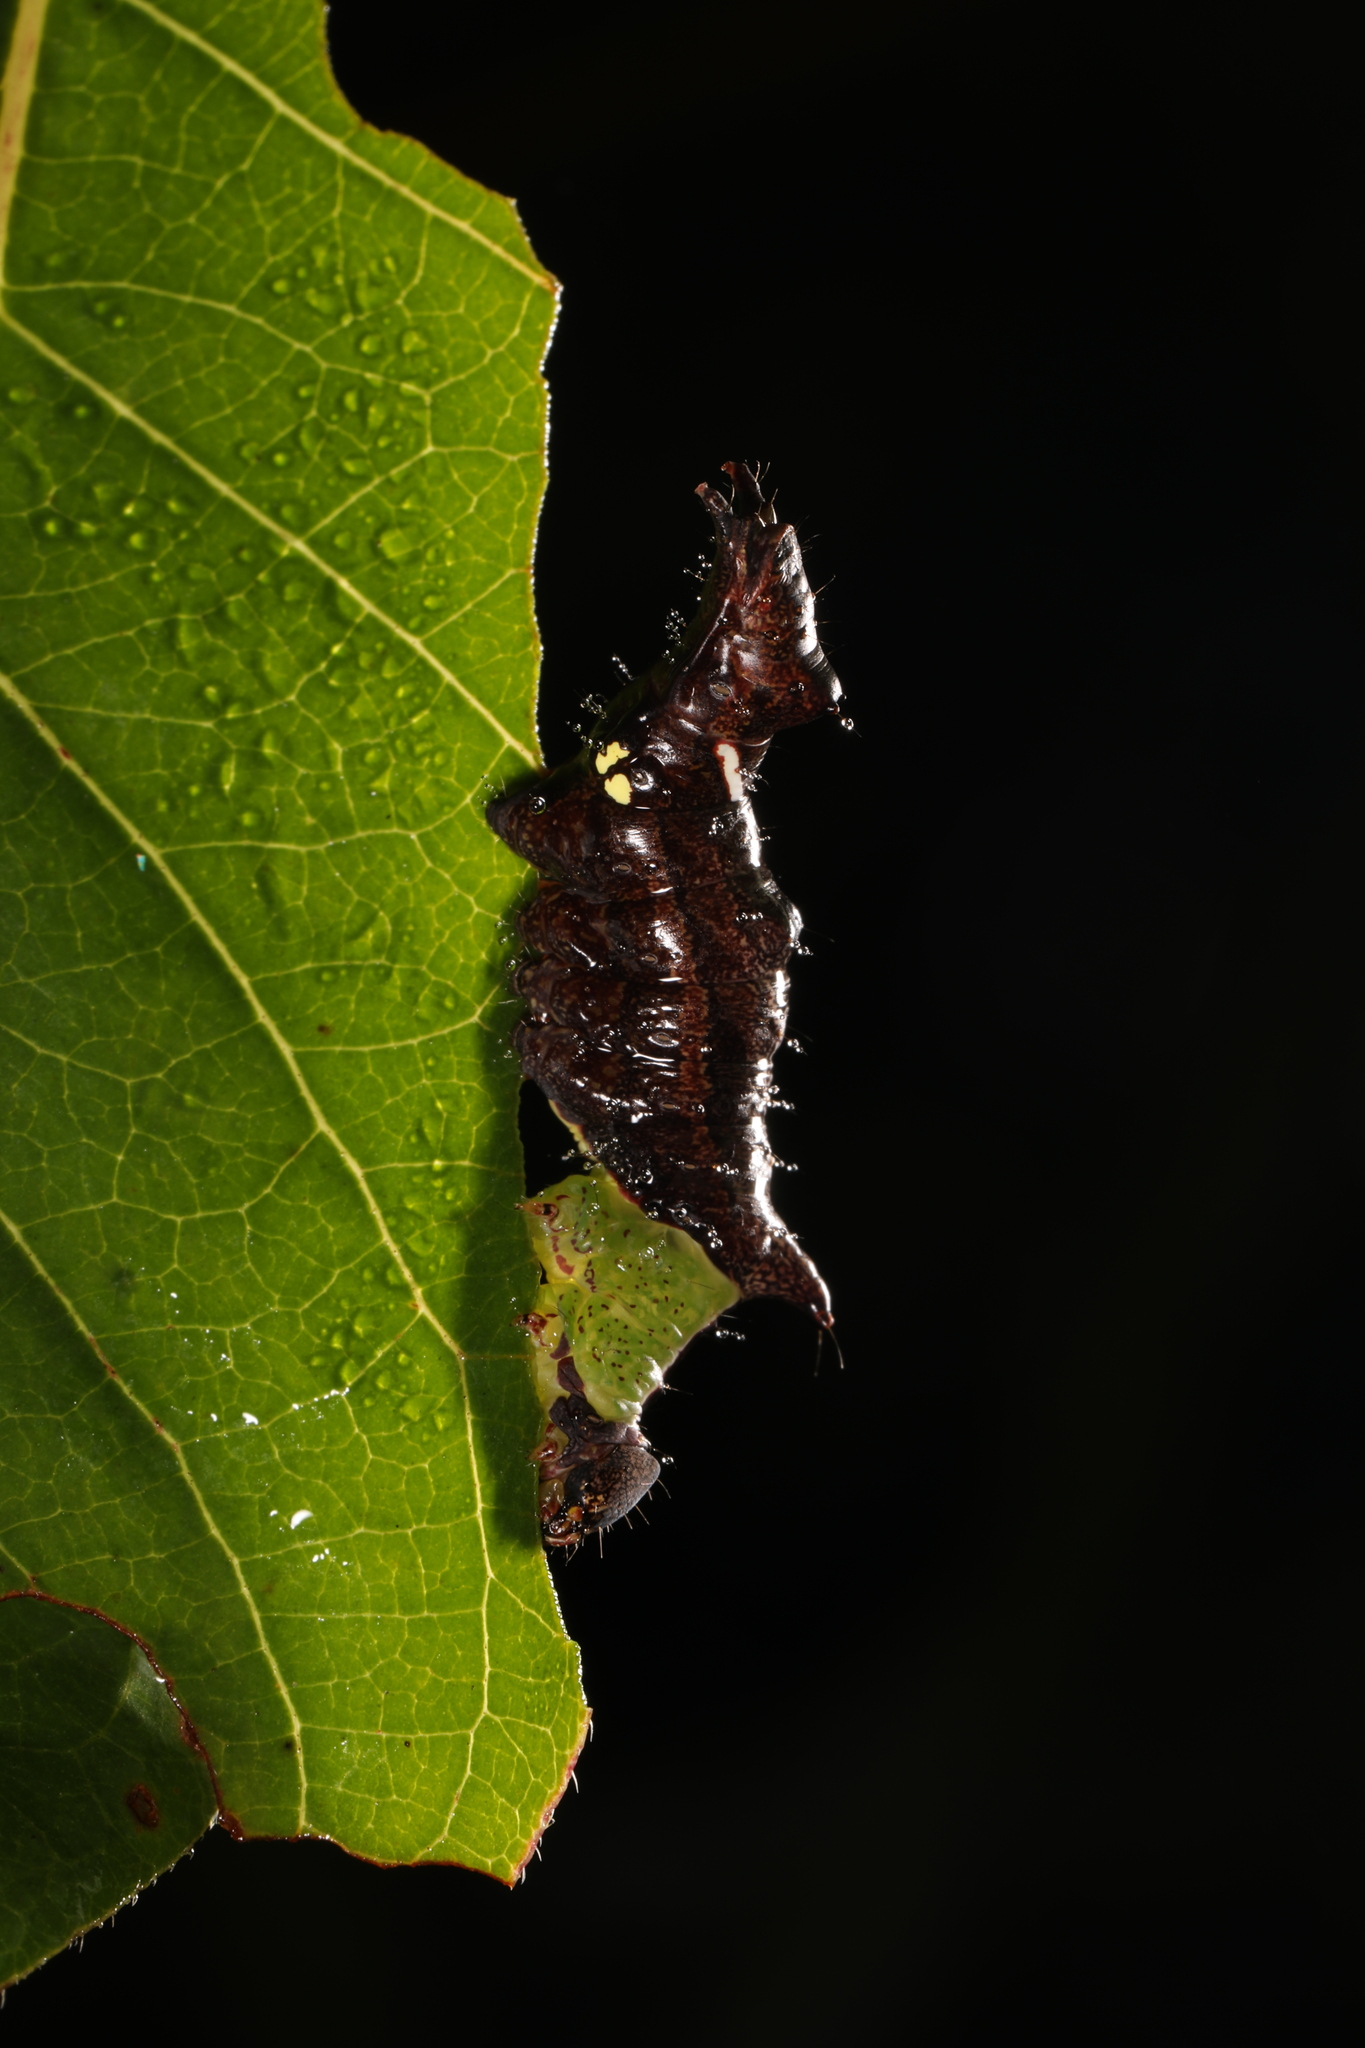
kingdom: Animalia
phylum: Arthropoda
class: Insecta
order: Lepidoptera
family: Notodontidae
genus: Schizura
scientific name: Schizura
